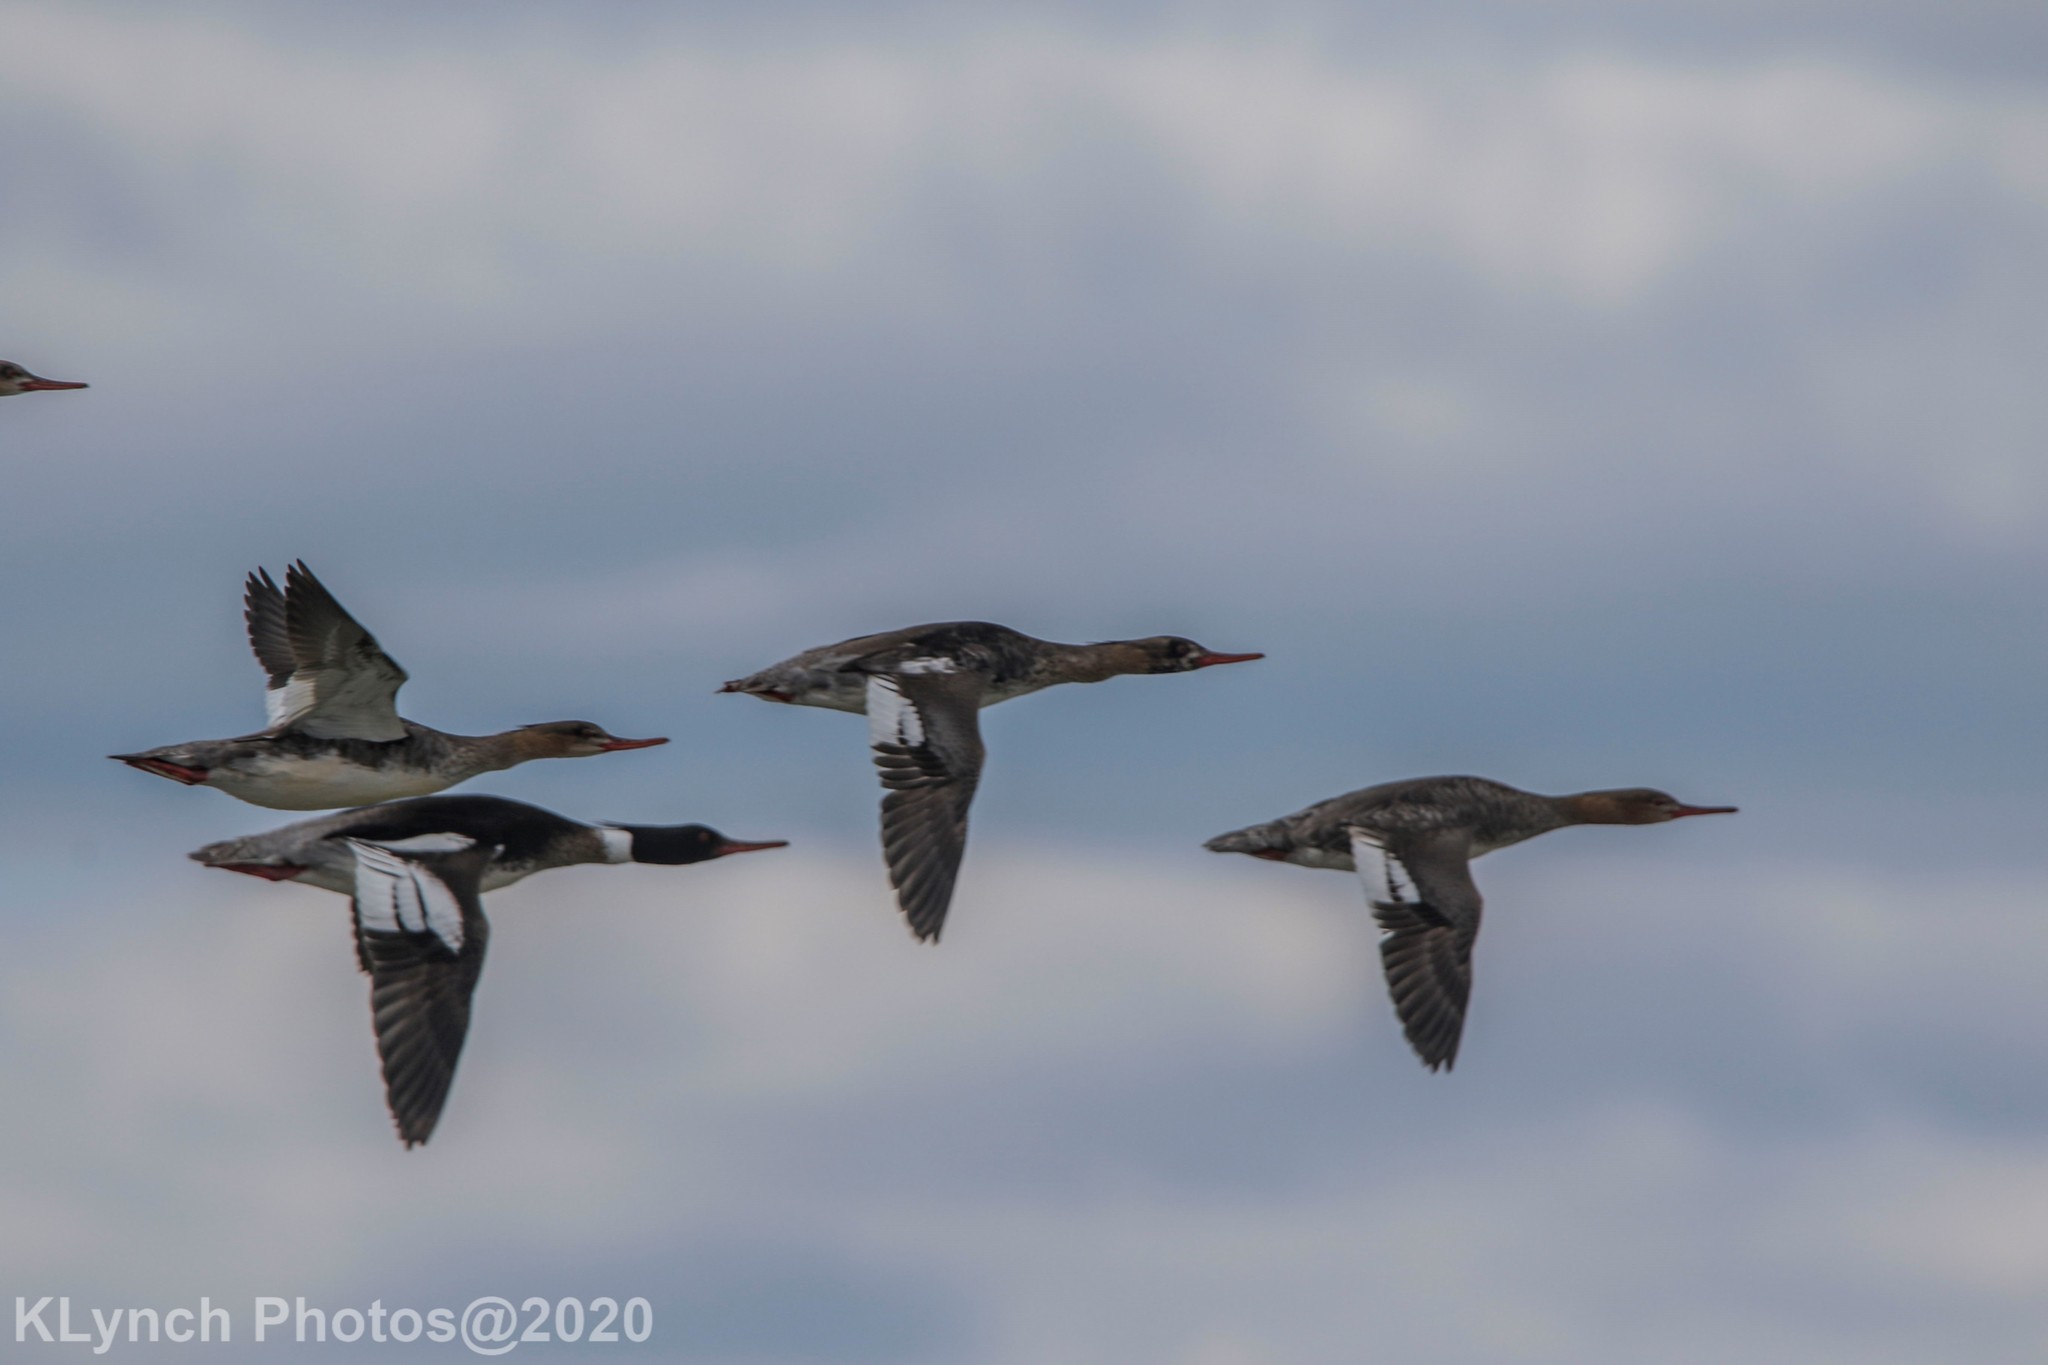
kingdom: Animalia
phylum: Chordata
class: Aves
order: Anseriformes
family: Anatidae
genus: Mergus
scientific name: Mergus serrator
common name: Red-breasted merganser
